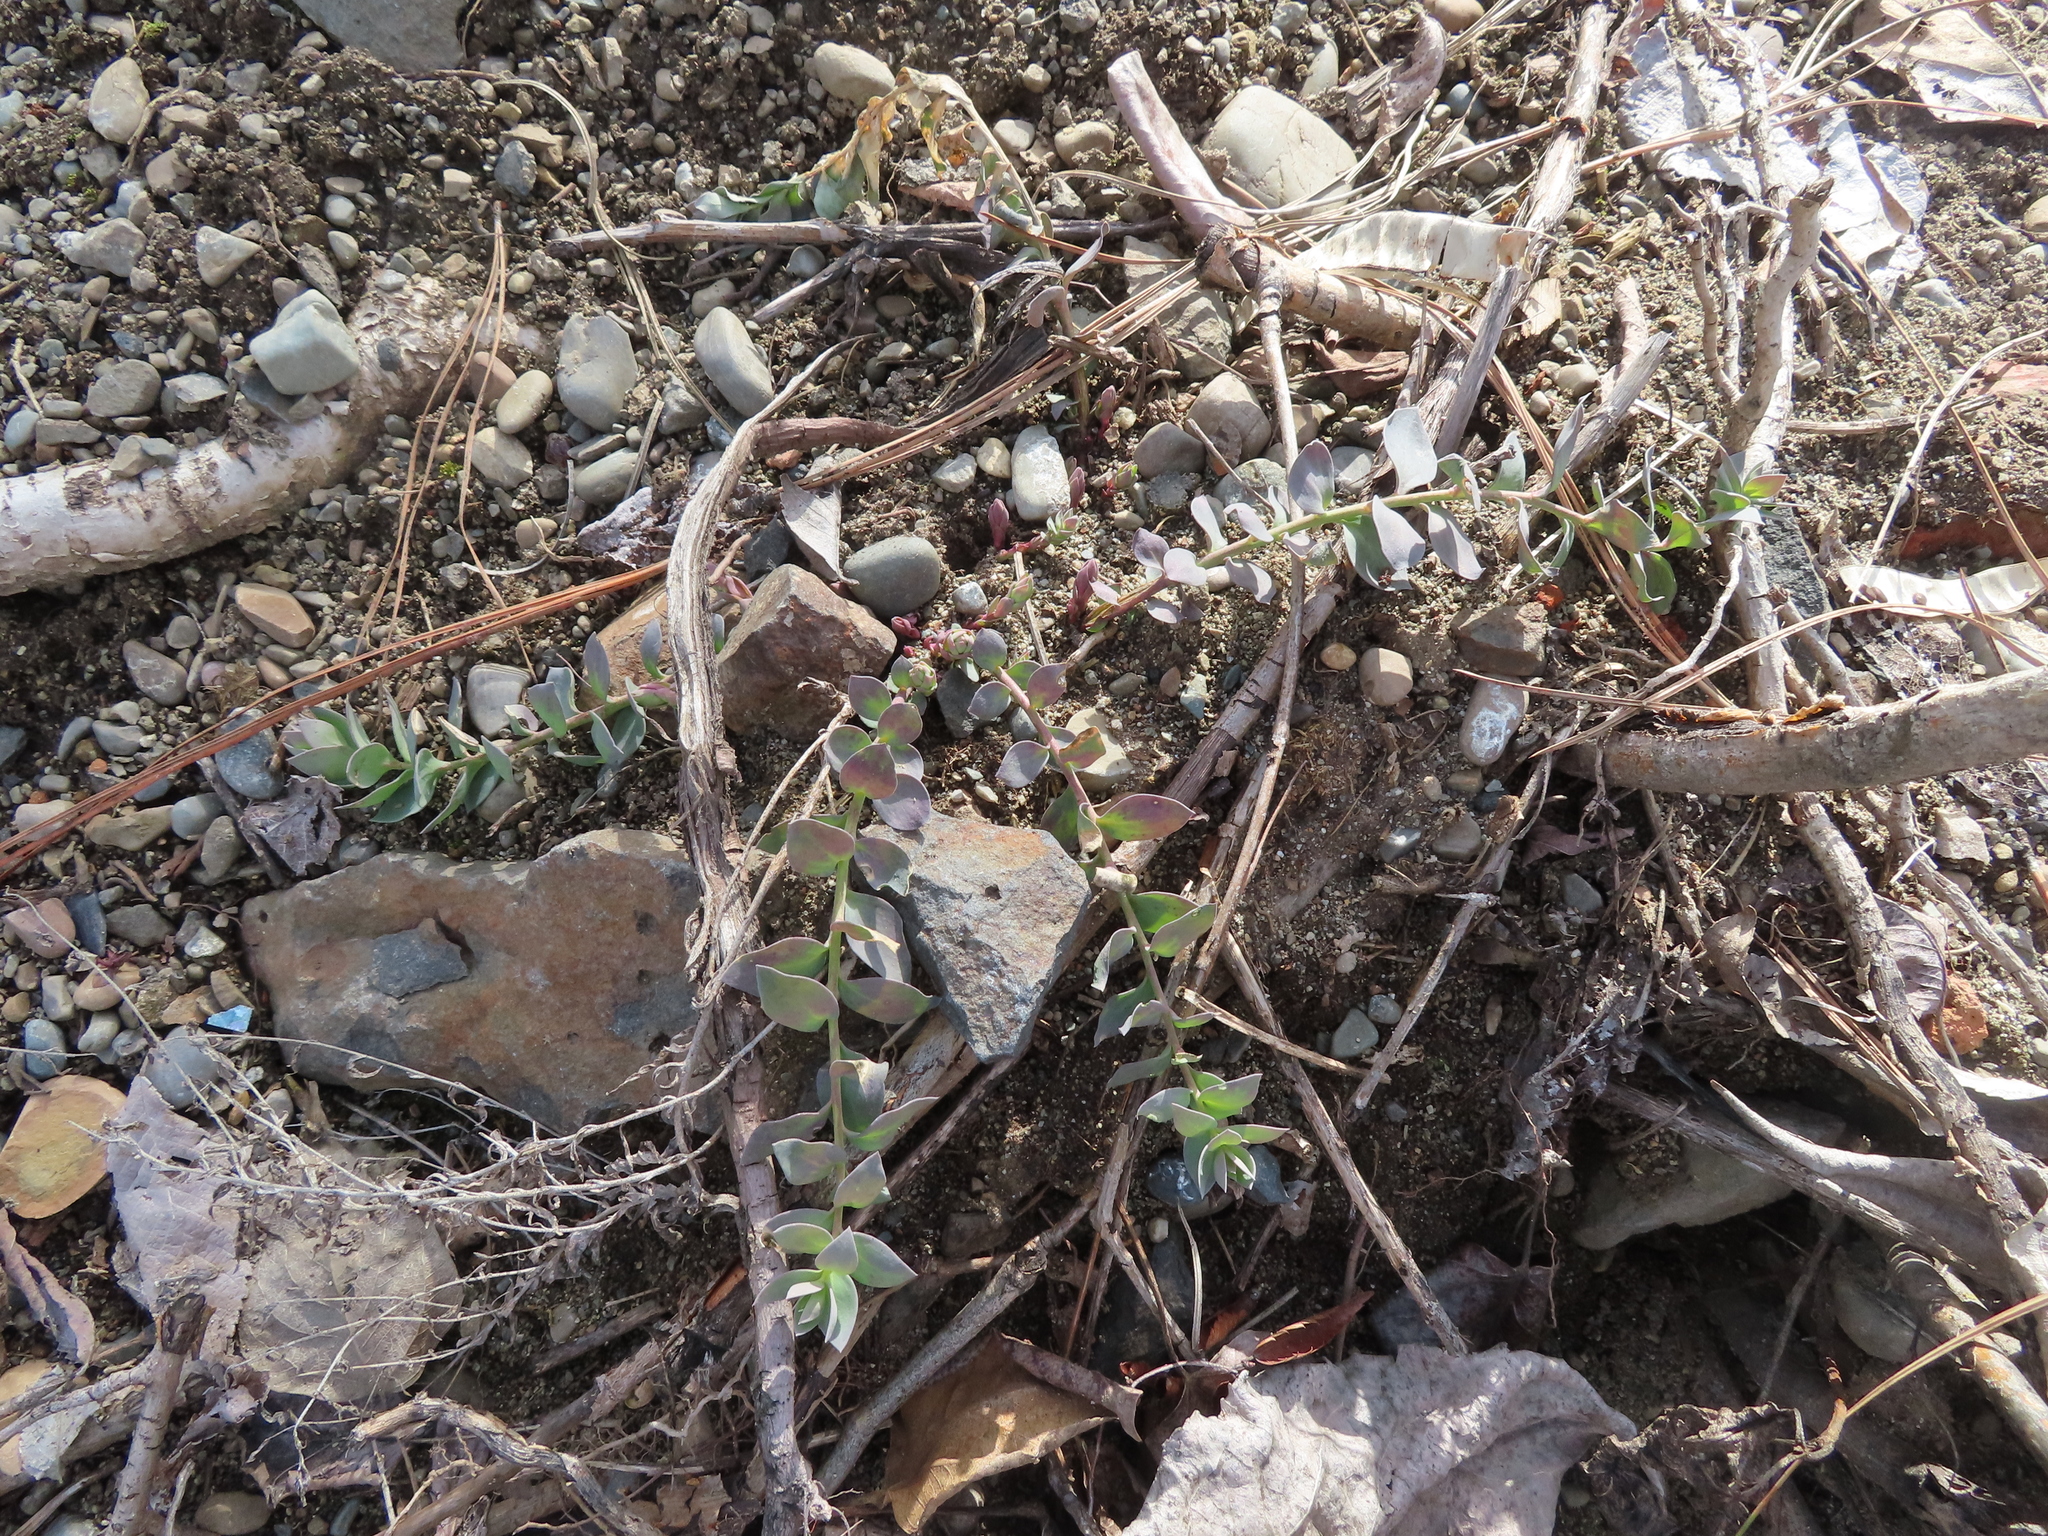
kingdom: Plantae
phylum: Tracheophyta
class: Magnoliopsida
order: Lamiales
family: Plantaginaceae
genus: Linaria
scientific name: Linaria dalmatica
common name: Dalmatian toadflax
